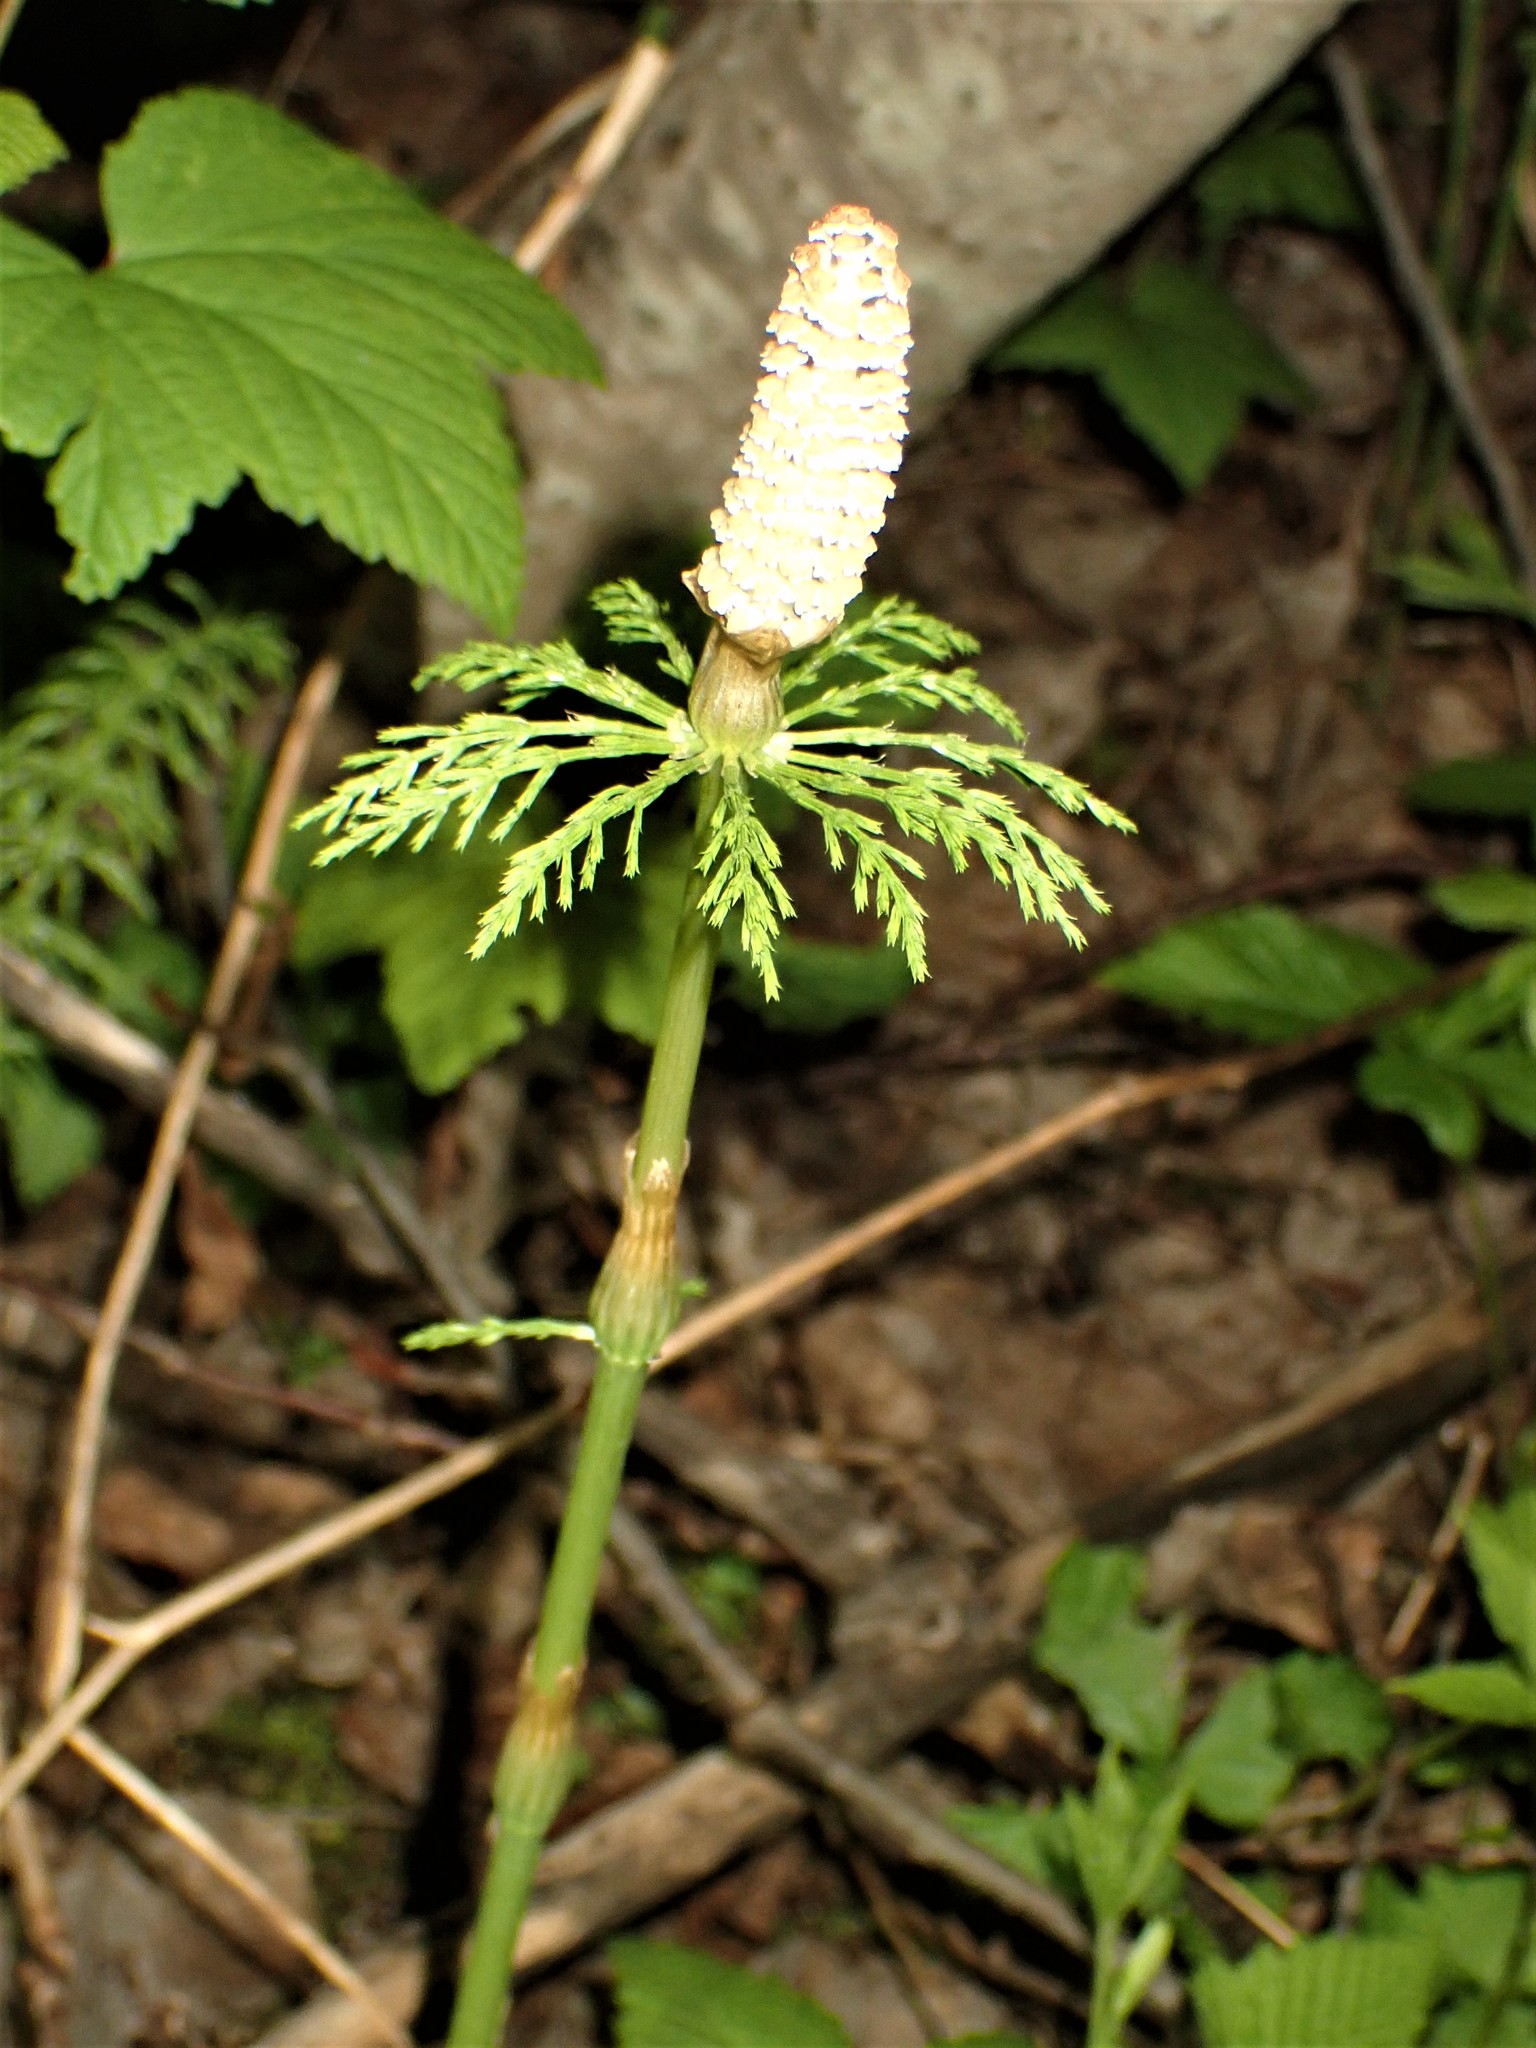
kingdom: Plantae
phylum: Tracheophyta
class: Polypodiopsida
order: Equisetales
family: Equisetaceae
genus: Equisetum
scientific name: Equisetum sylvaticum
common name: Wood horsetail
